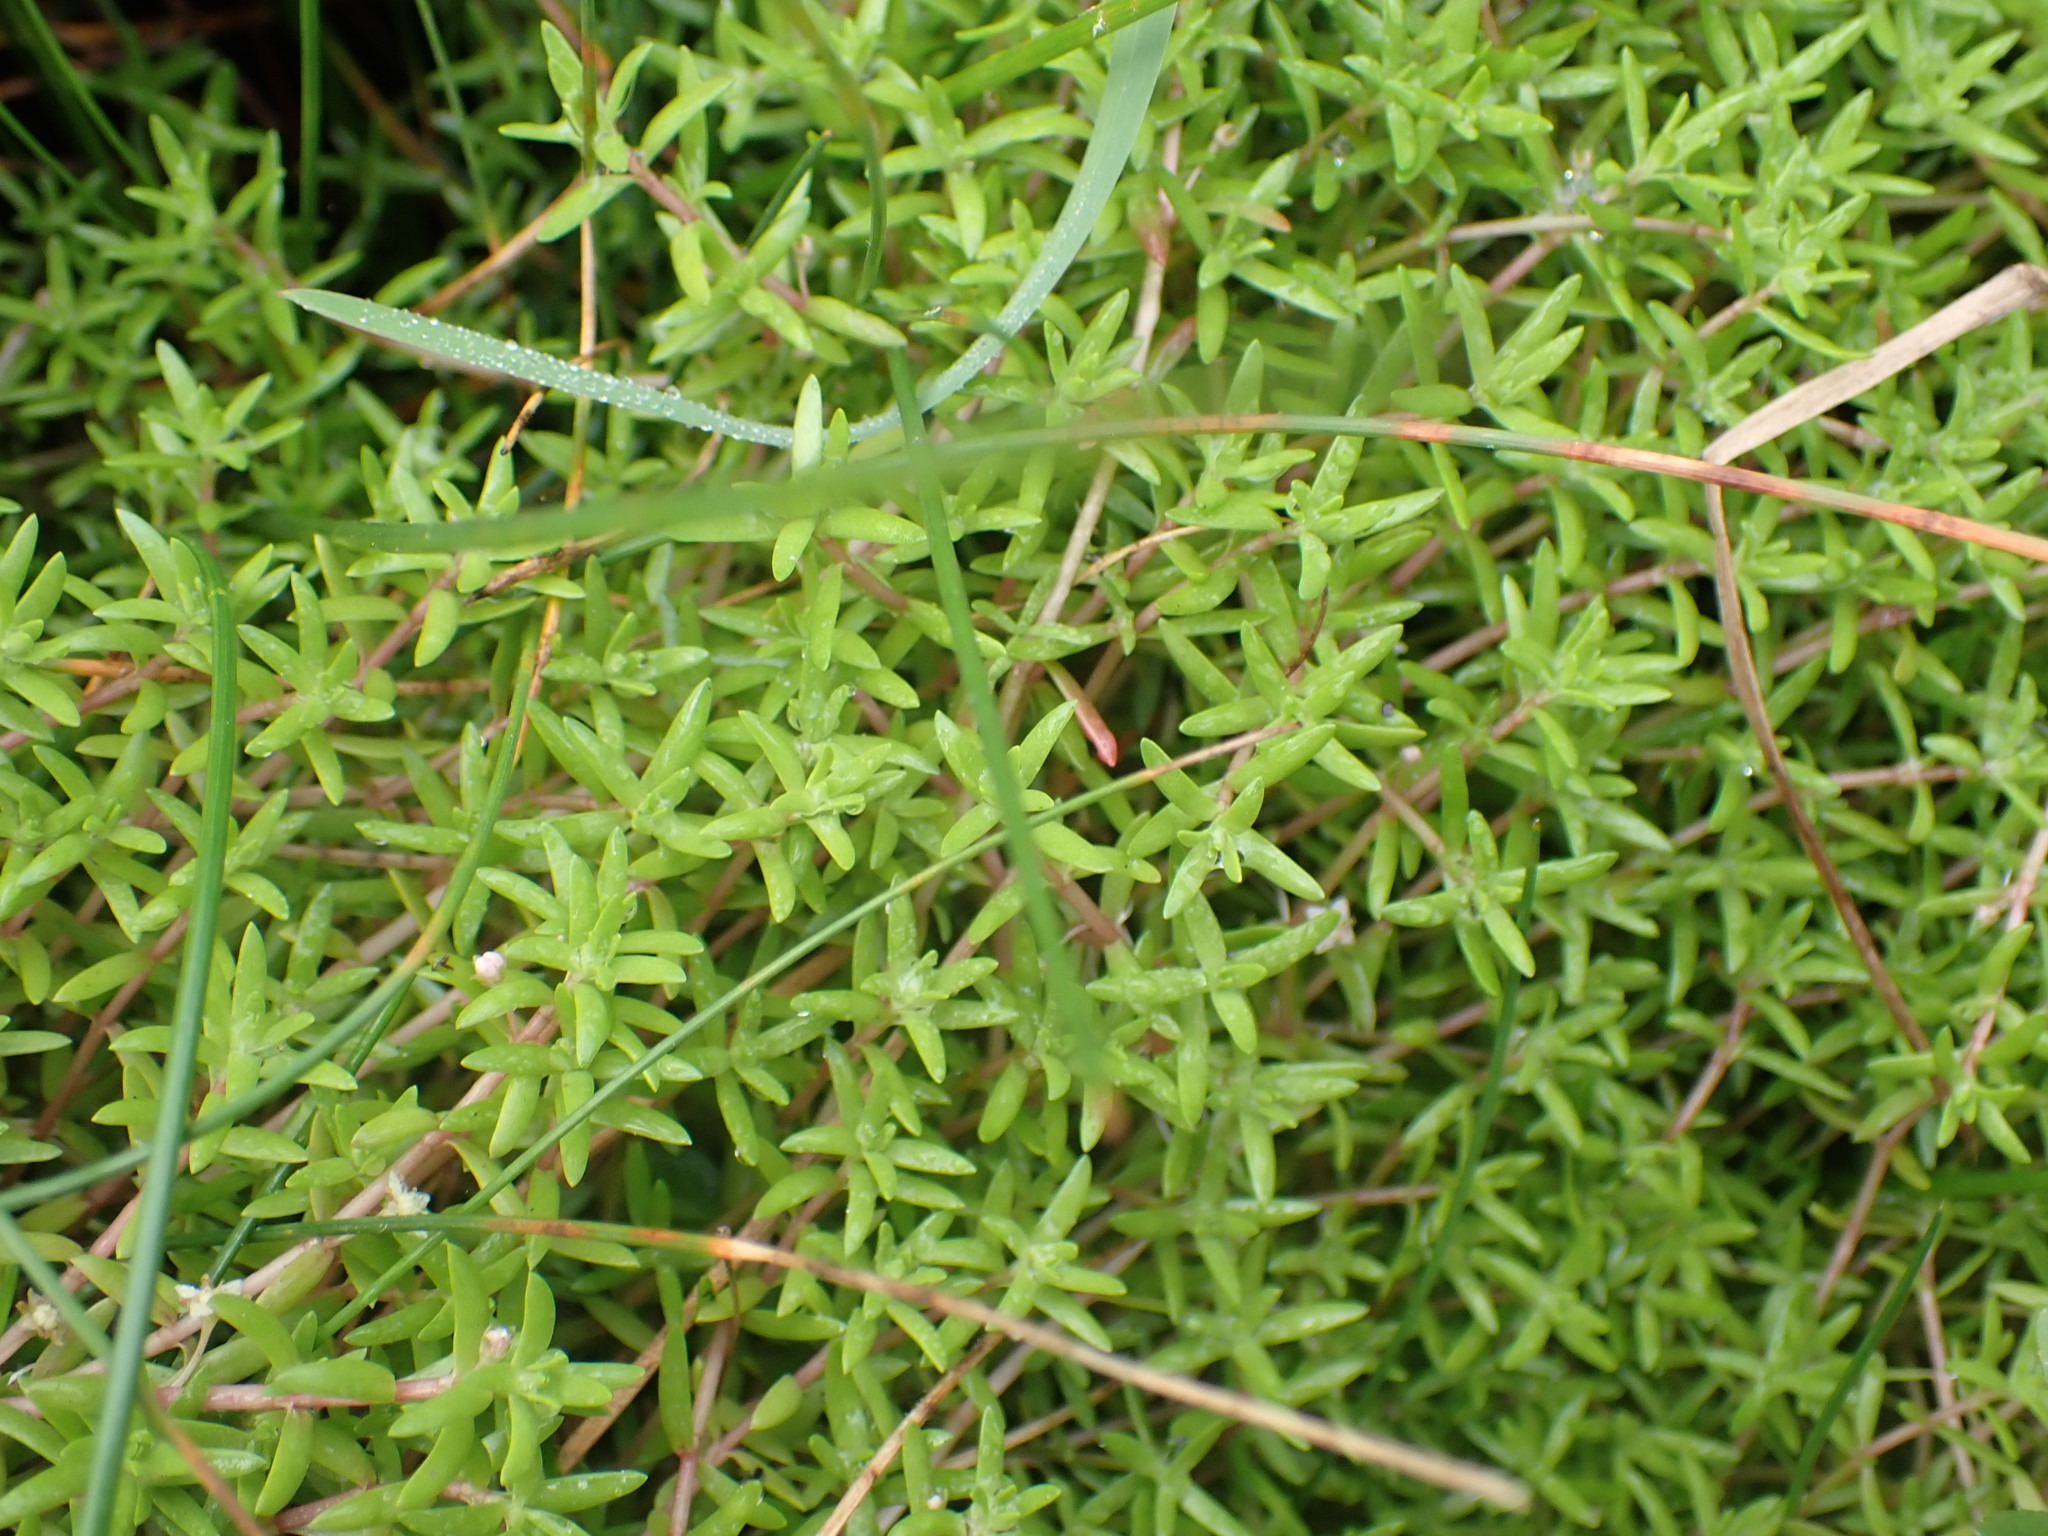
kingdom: Plantae
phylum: Tracheophyta
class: Magnoliopsida
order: Saxifragales
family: Crassulaceae
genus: Crassula
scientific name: Crassula helmsii
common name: New zealand pigmyweed
